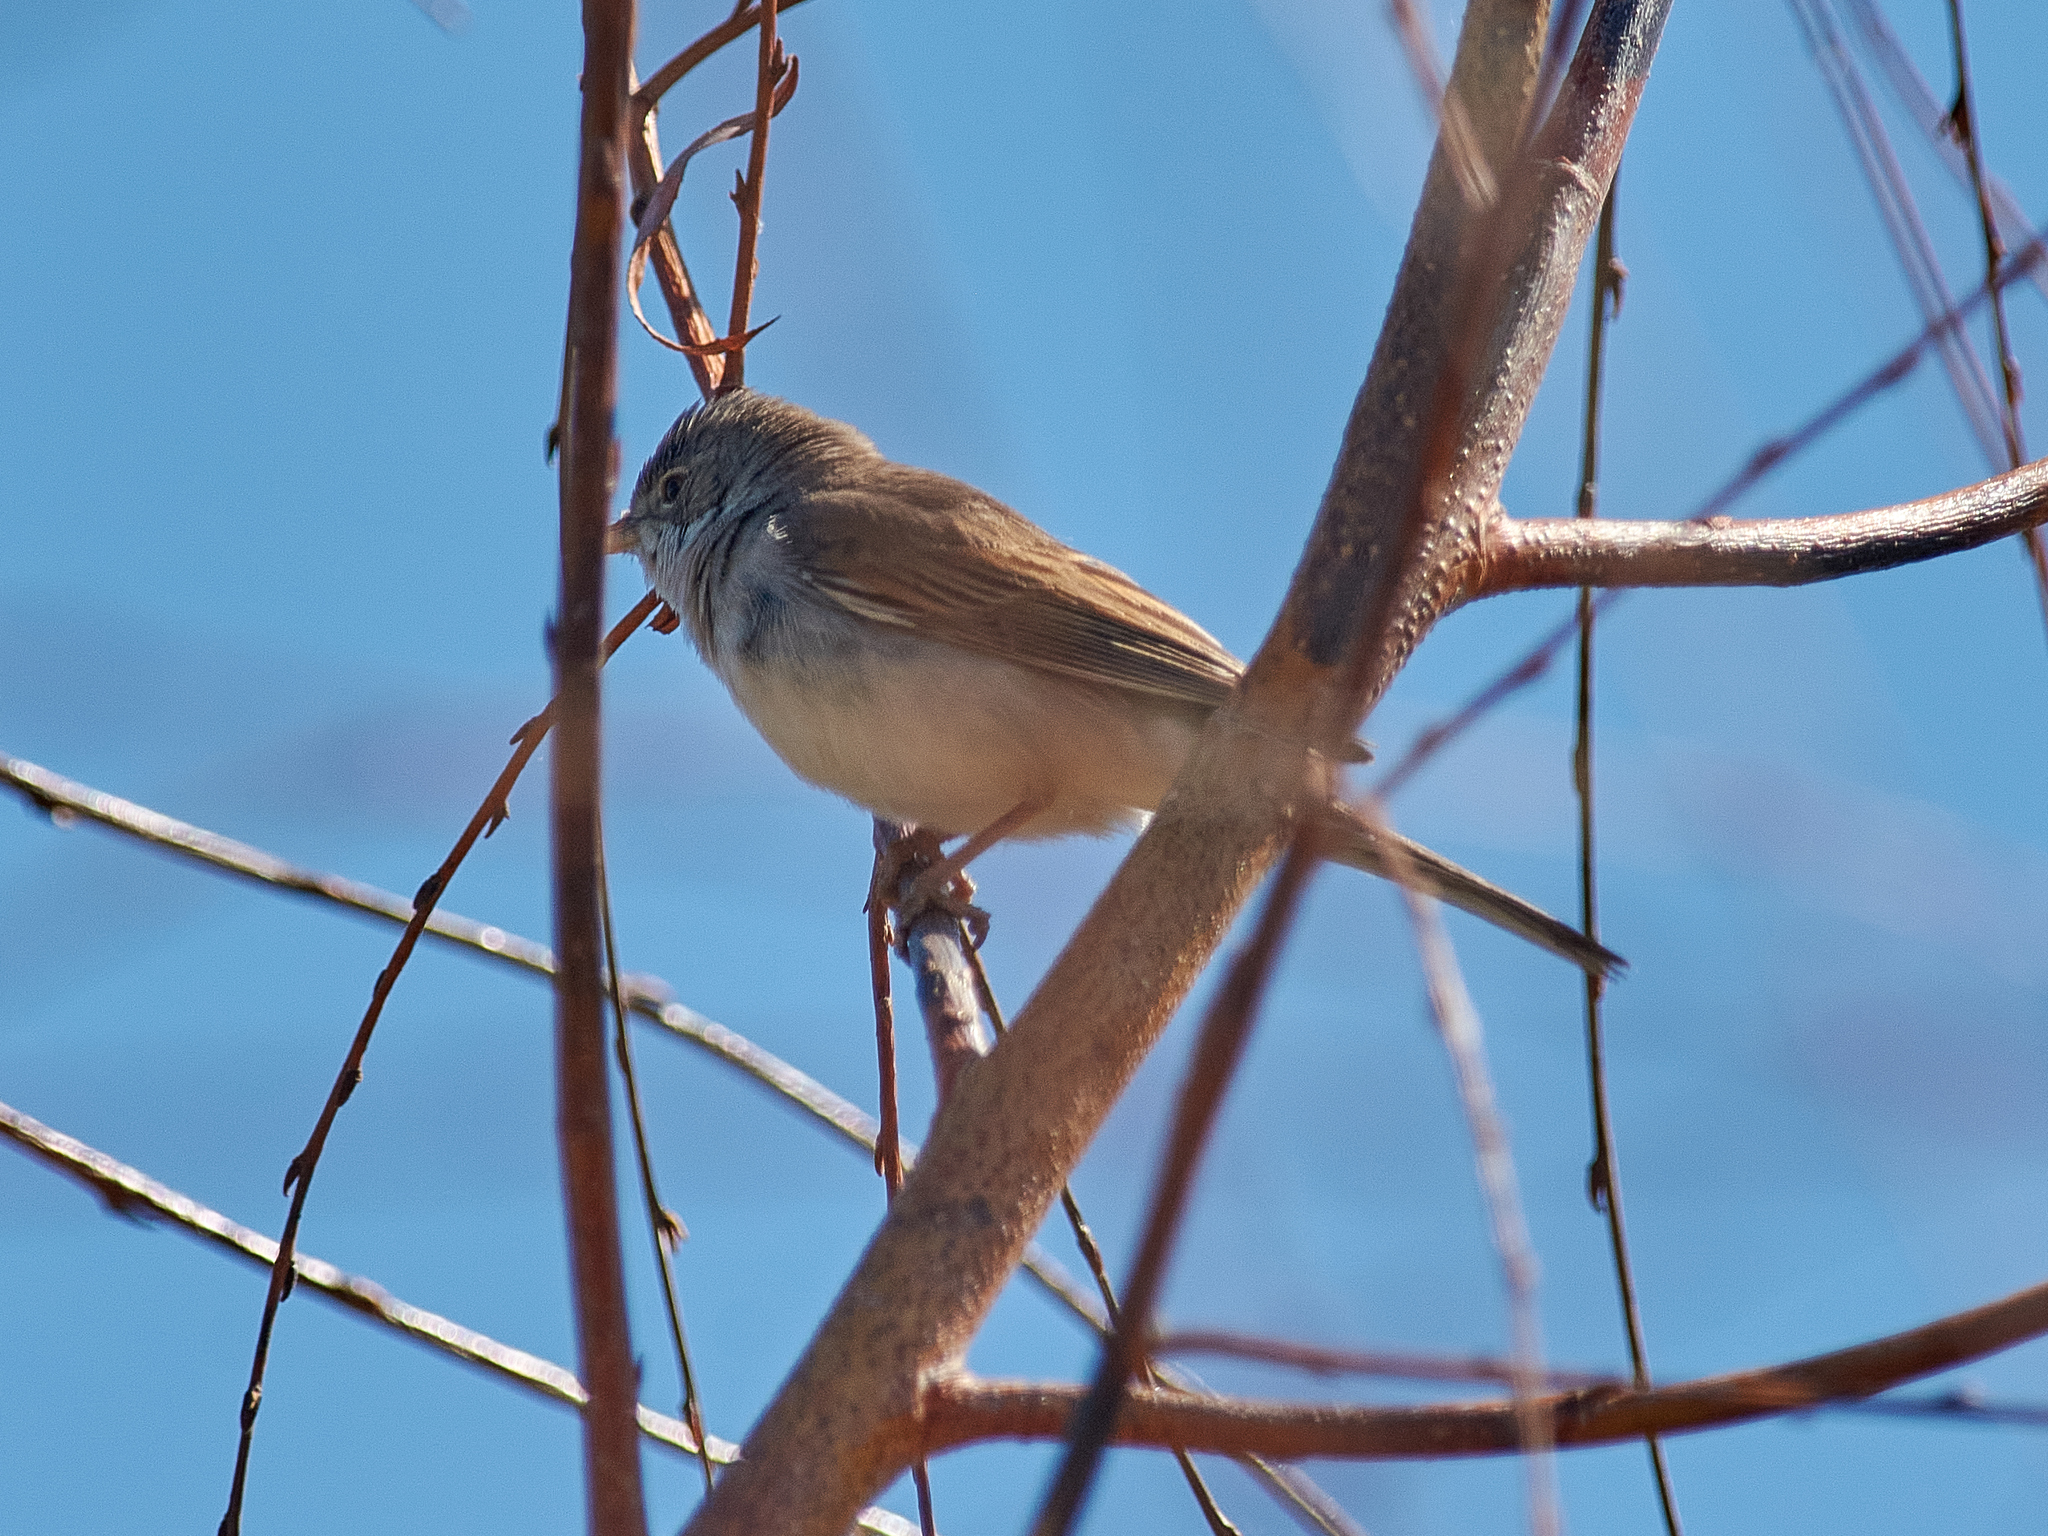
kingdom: Animalia
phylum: Chordata
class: Aves
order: Passeriformes
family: Sylviidae
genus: Sylvia
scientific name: Sylvia communis
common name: Common whitethroat
